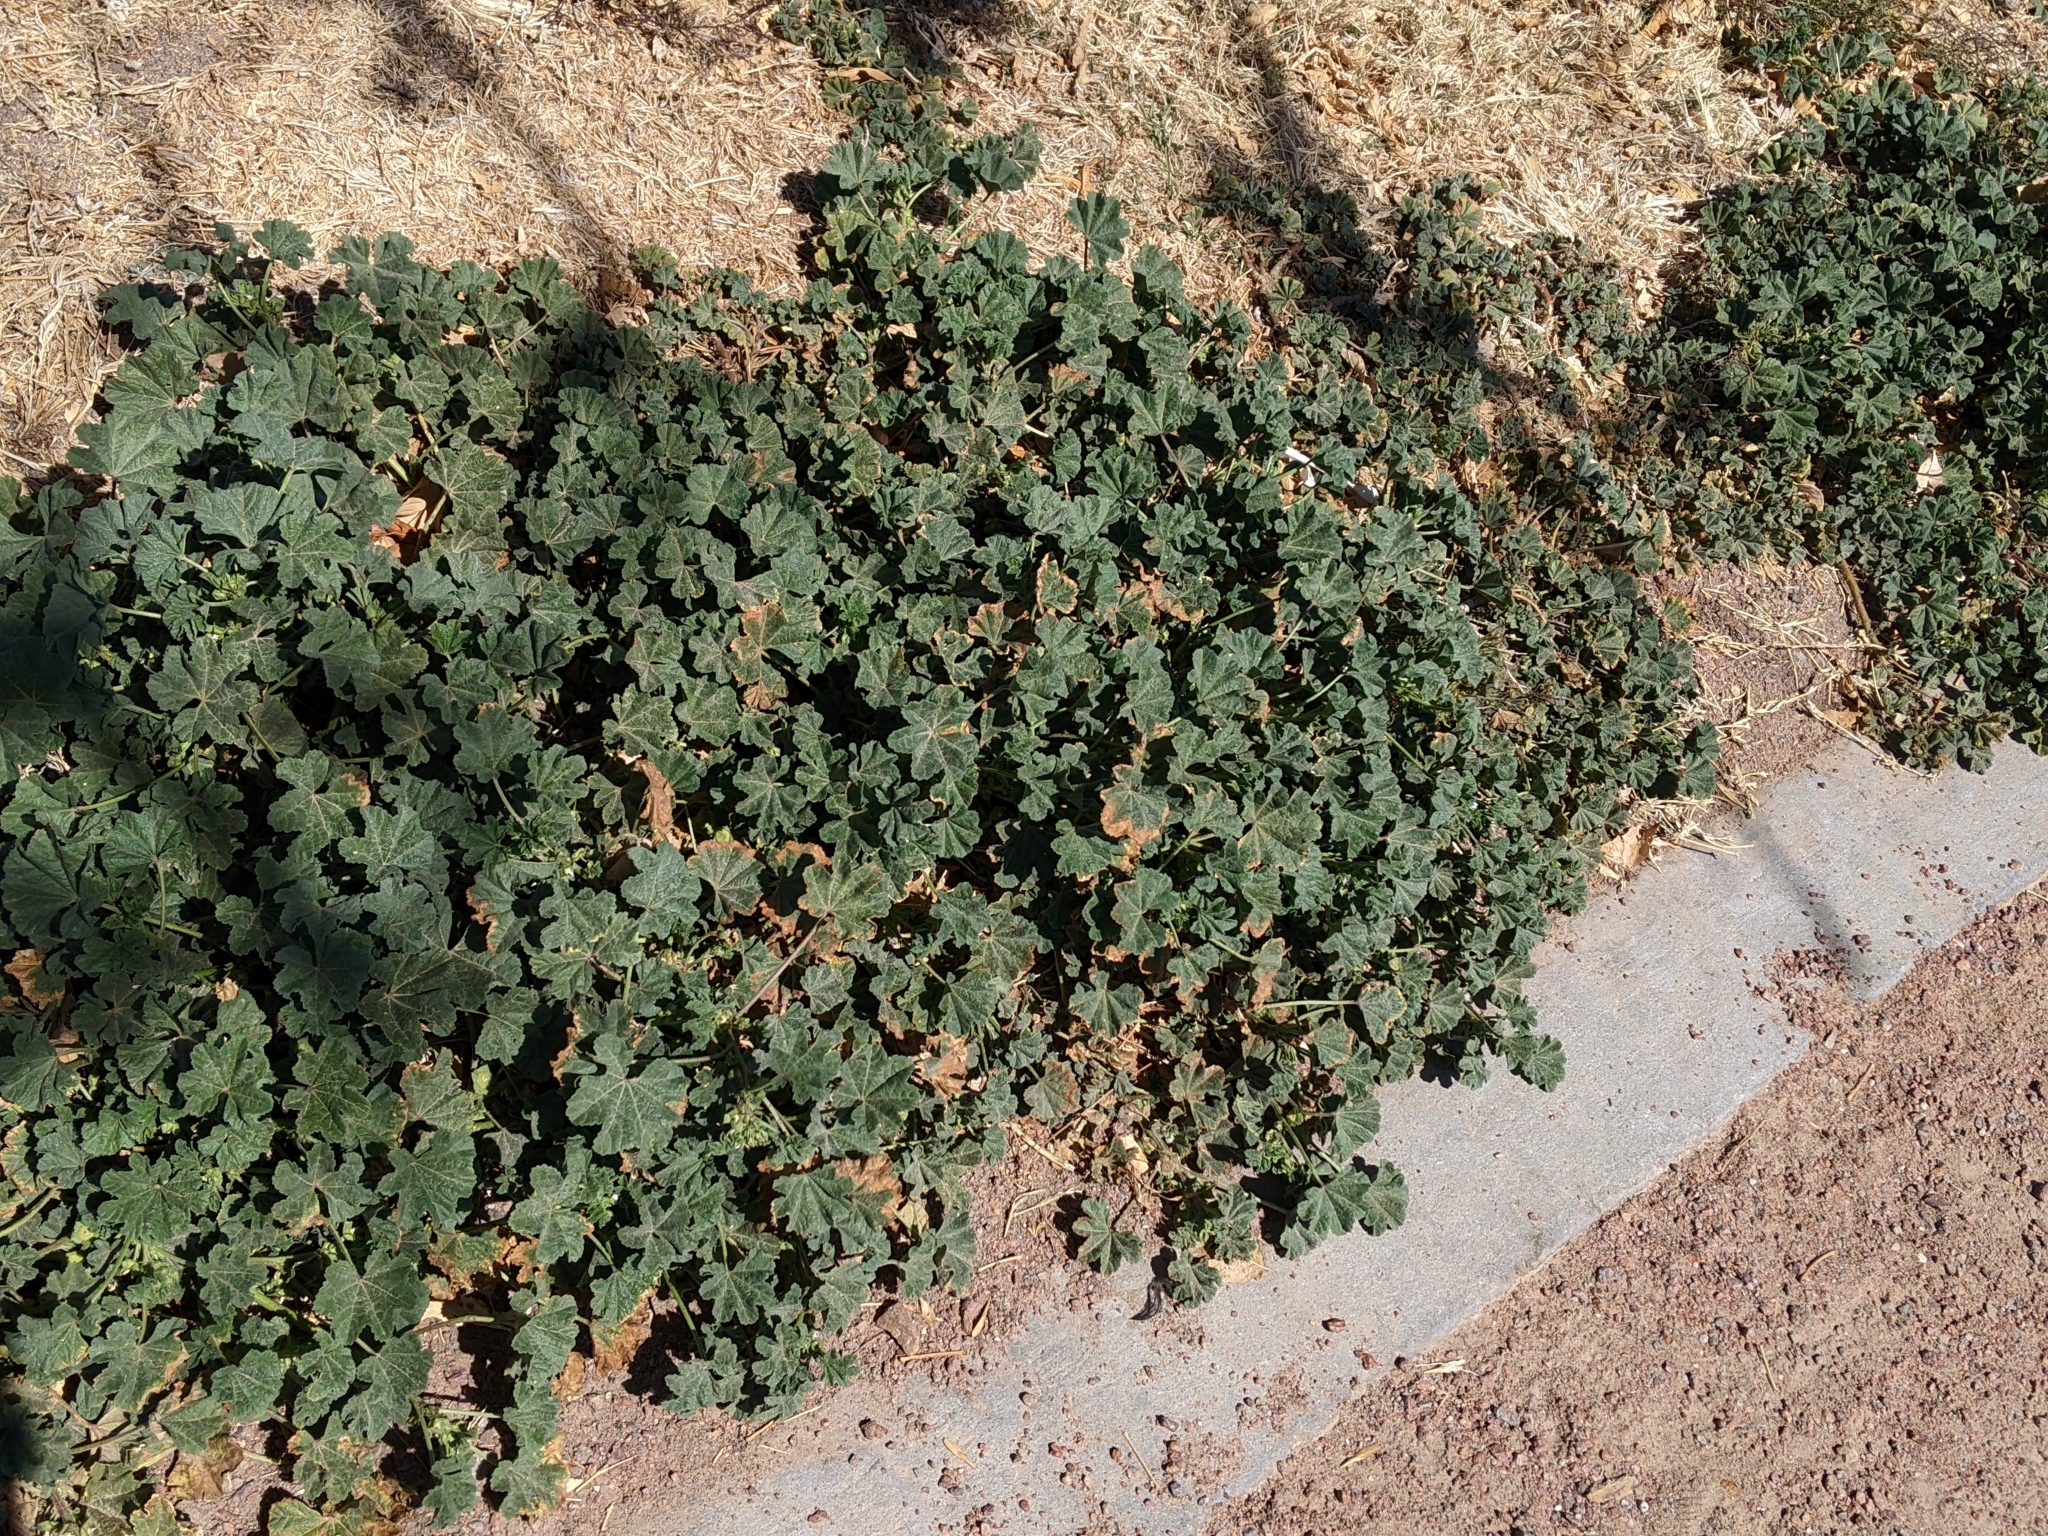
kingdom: Plantae
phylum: Tracheophyta
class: Magnoliopsida
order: Malvales
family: Malvaceae
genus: Malva
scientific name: Malva parviflora
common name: Least mallow
